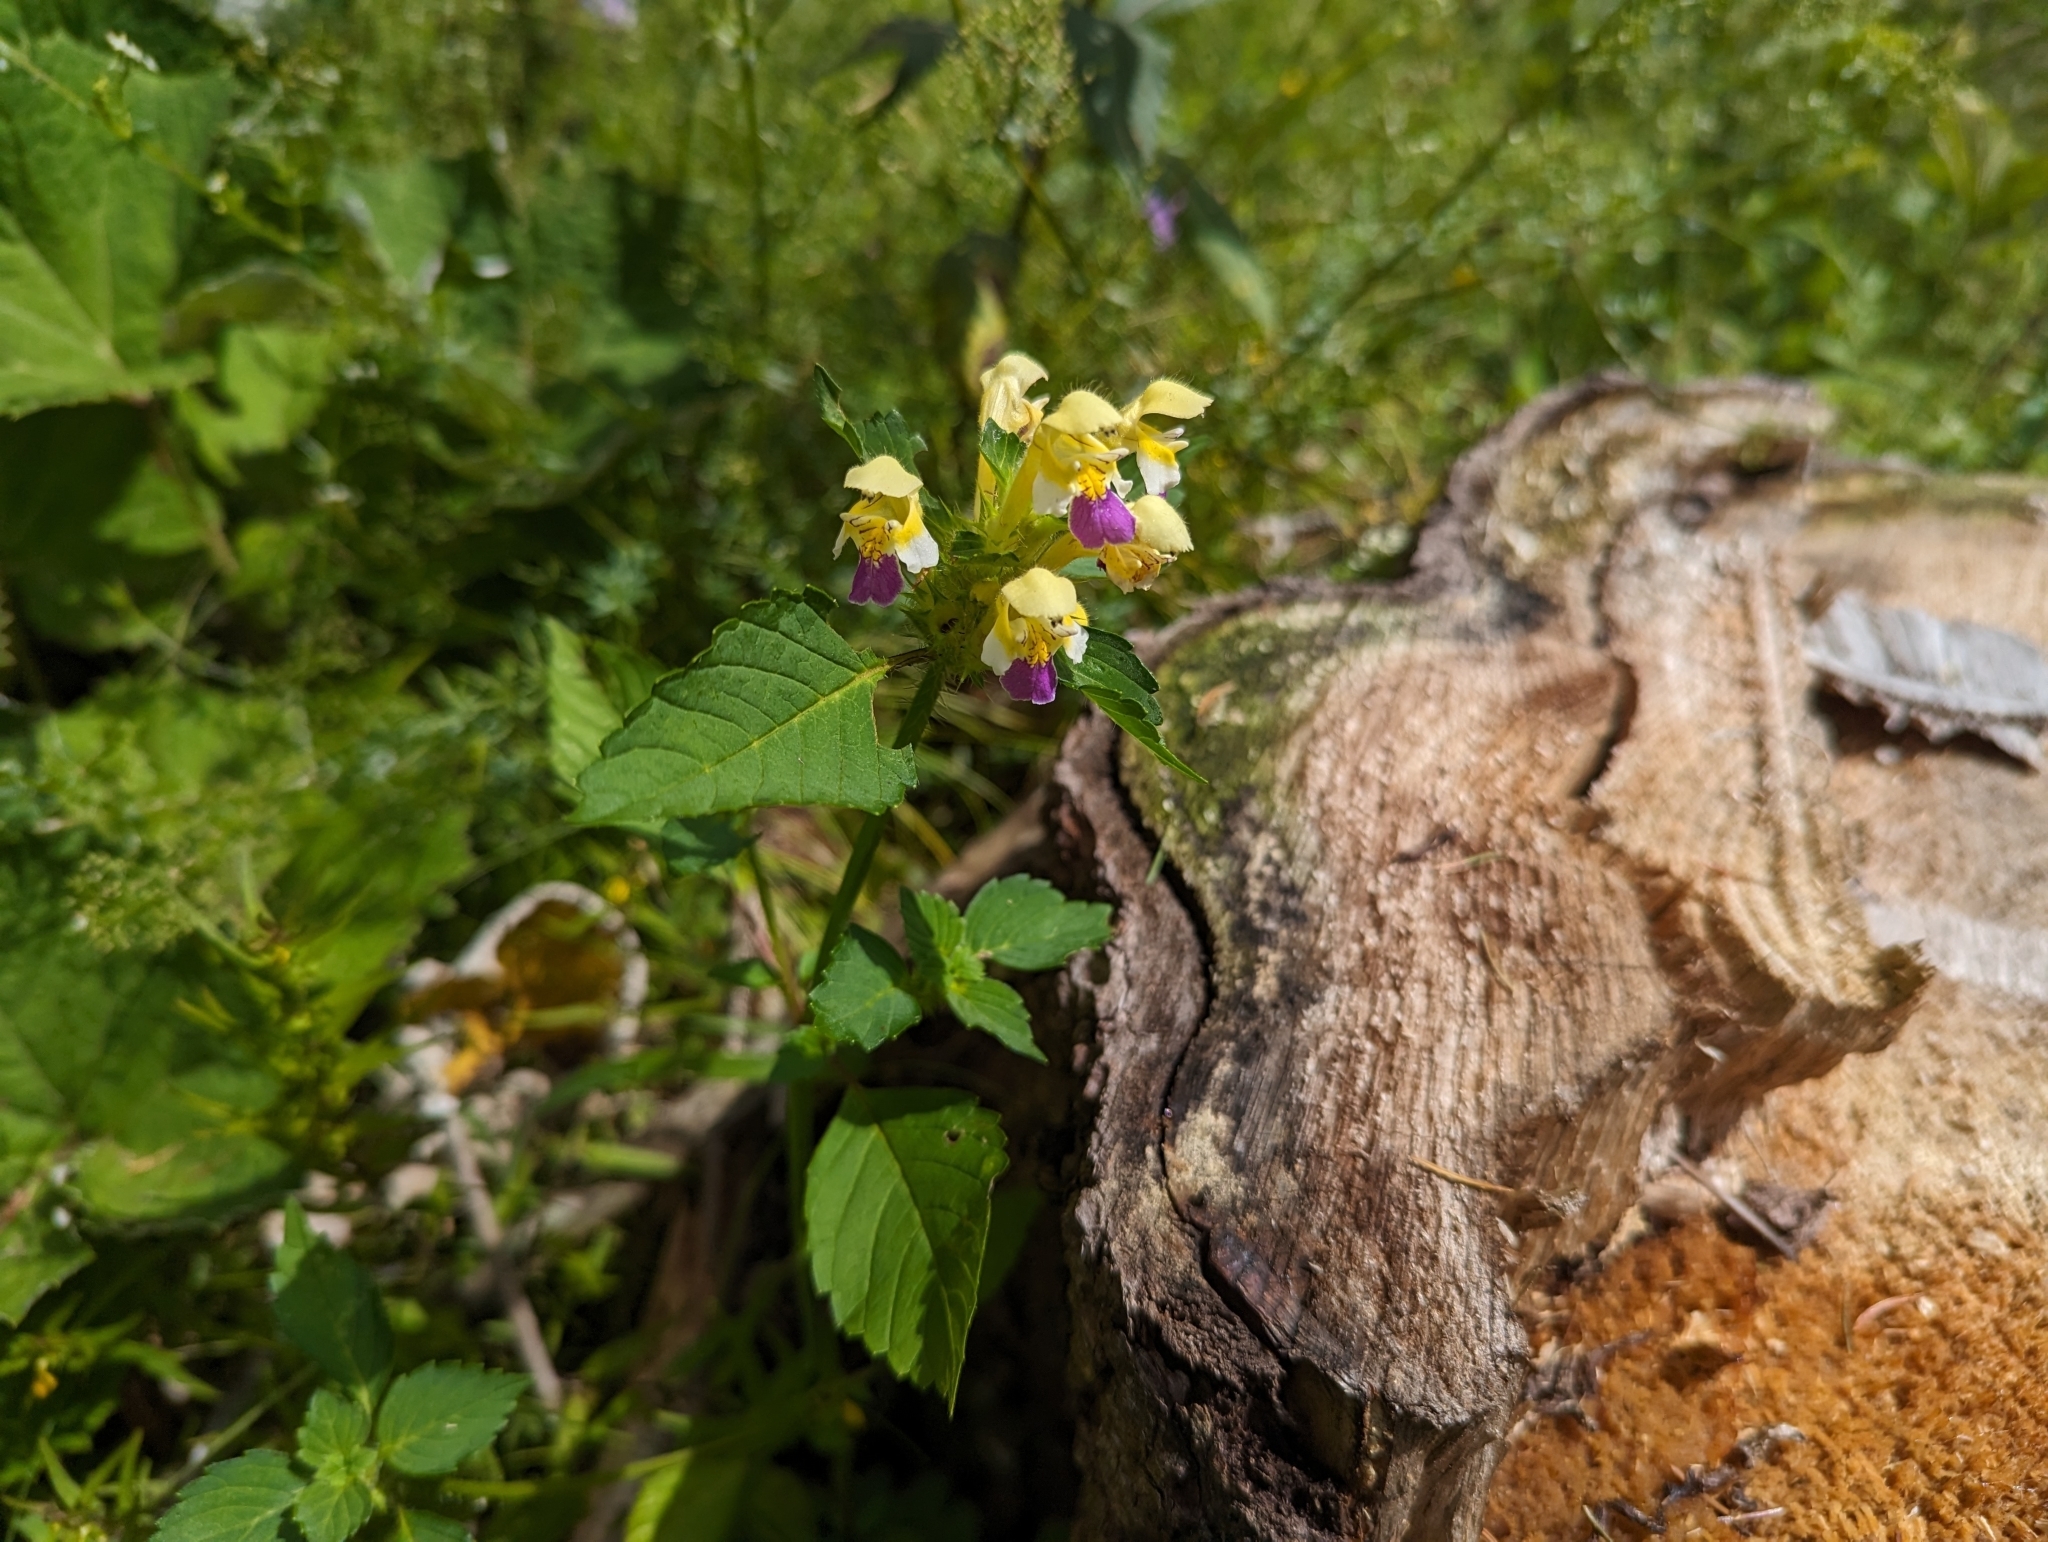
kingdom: Plantae
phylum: Tracheophyta
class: Magnoliopsida
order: Lamiales
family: Lamiaceae
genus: Galeopsis
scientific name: Galeopsis speciosa
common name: Large-flowered hemp-nettle
